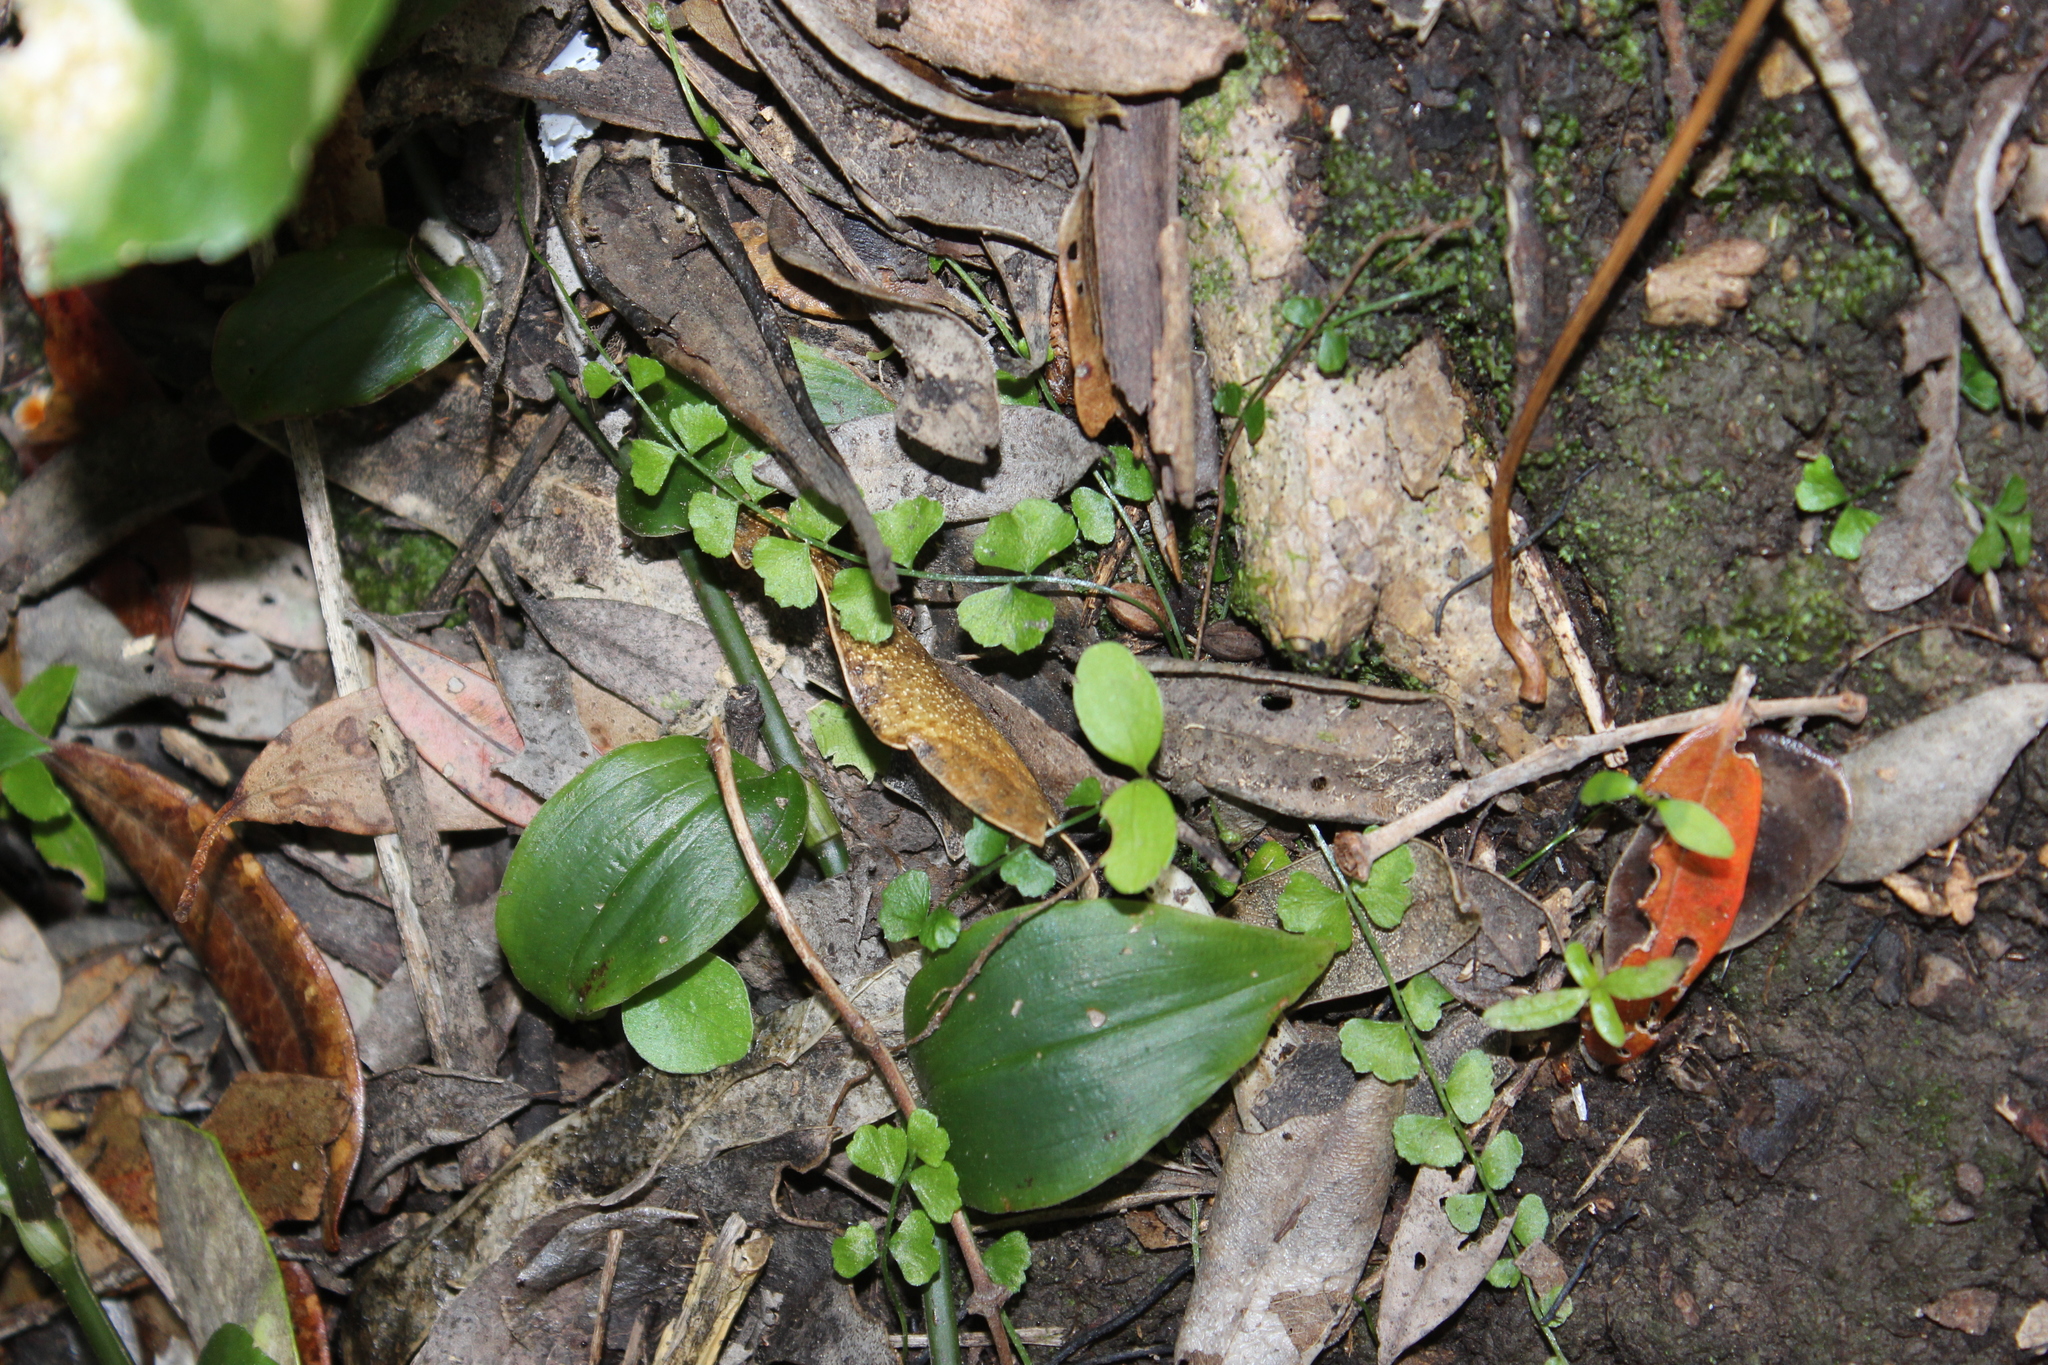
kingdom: Plantae
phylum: Tracheophyta
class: Polypodiopsida
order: Polypodiales
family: Aspleniaceae
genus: Asplenium
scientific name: Asplenium flabellifolium
